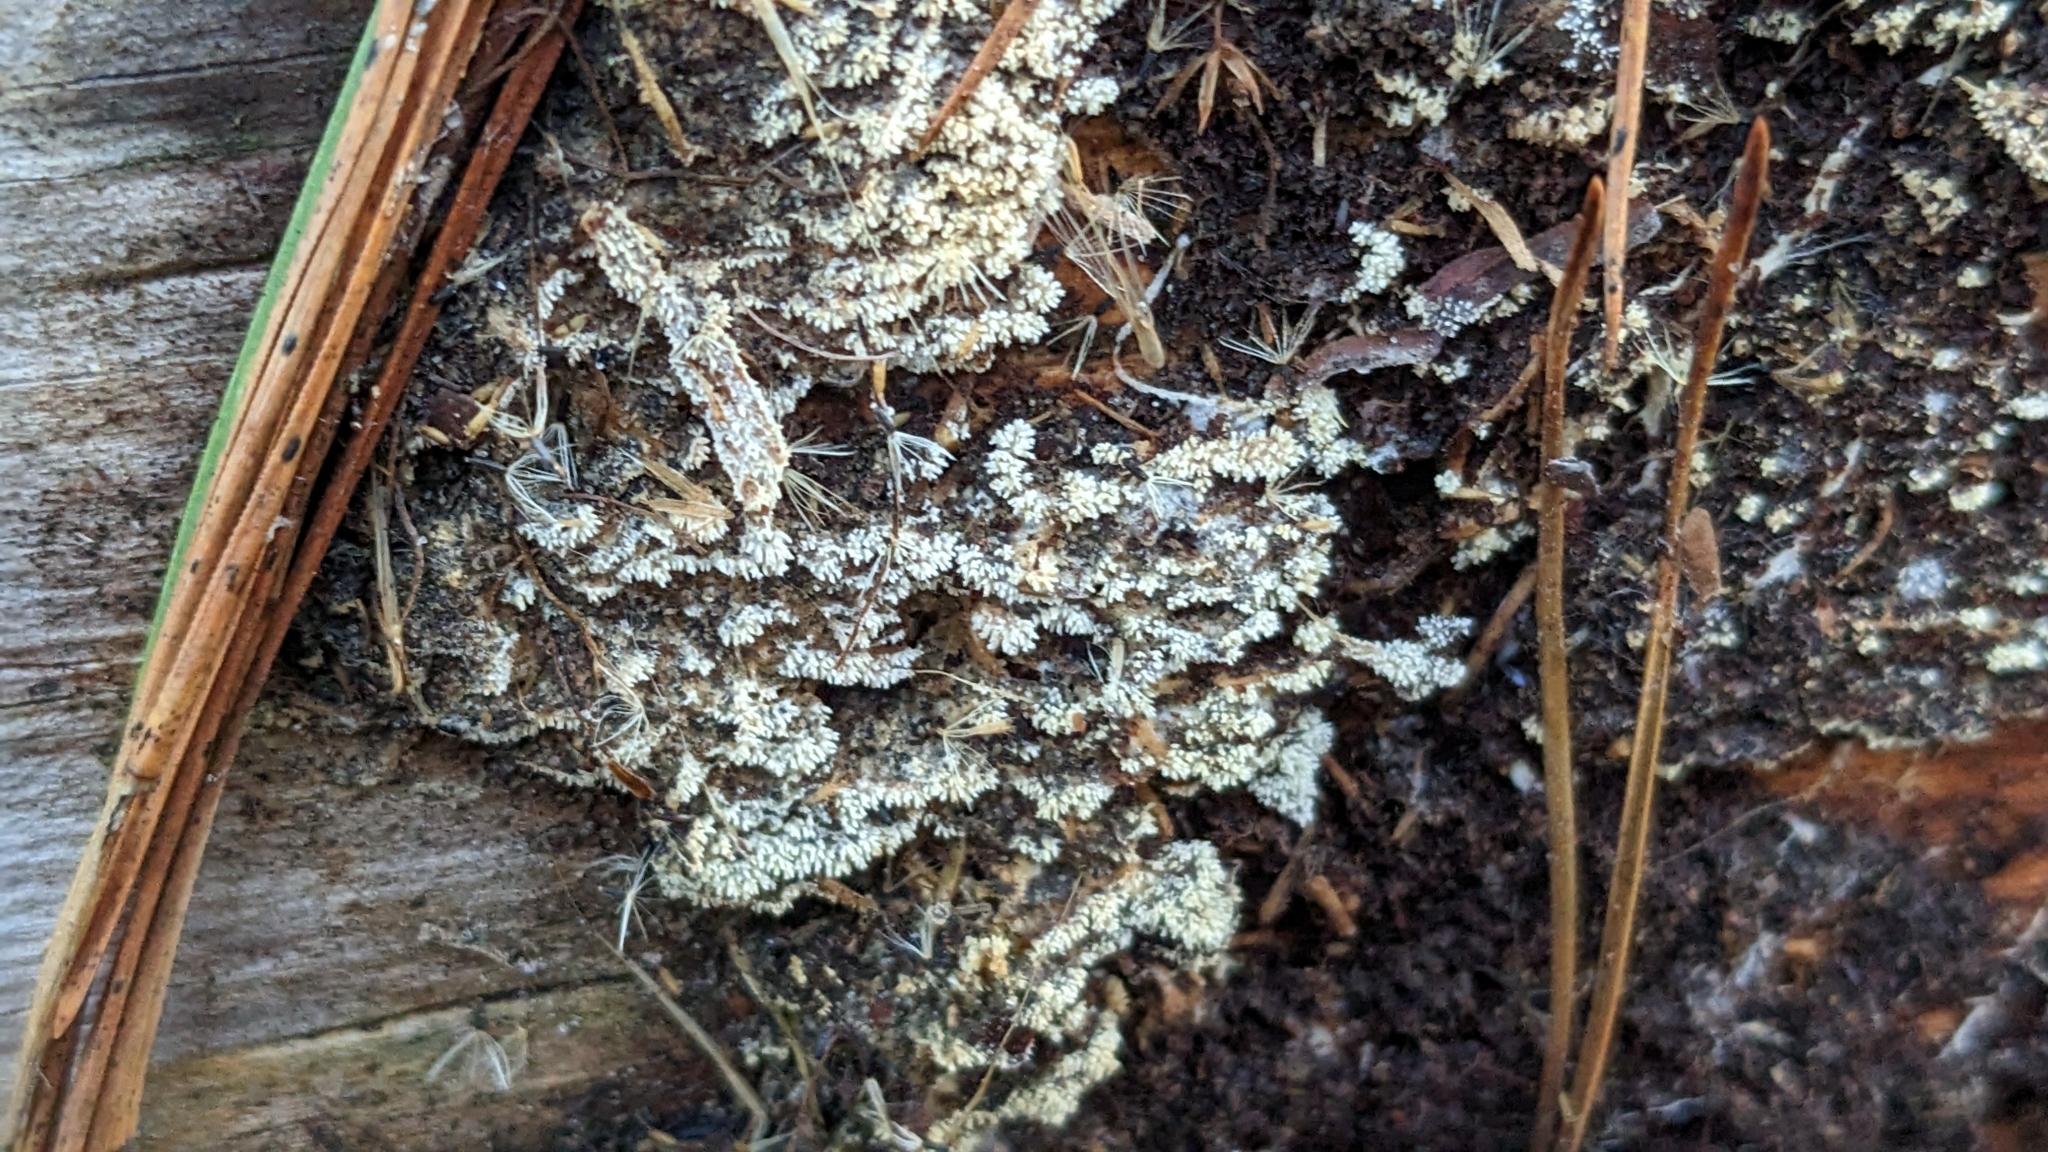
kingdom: Protozoa
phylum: Mycetozoa
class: Protosteliomycetes
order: Ceratiomyxales
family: Ceratiomyxaceae
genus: Ceratiomyxa
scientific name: Ceratiomyxa fruticulosa
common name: Honeycomb coral slime mold
